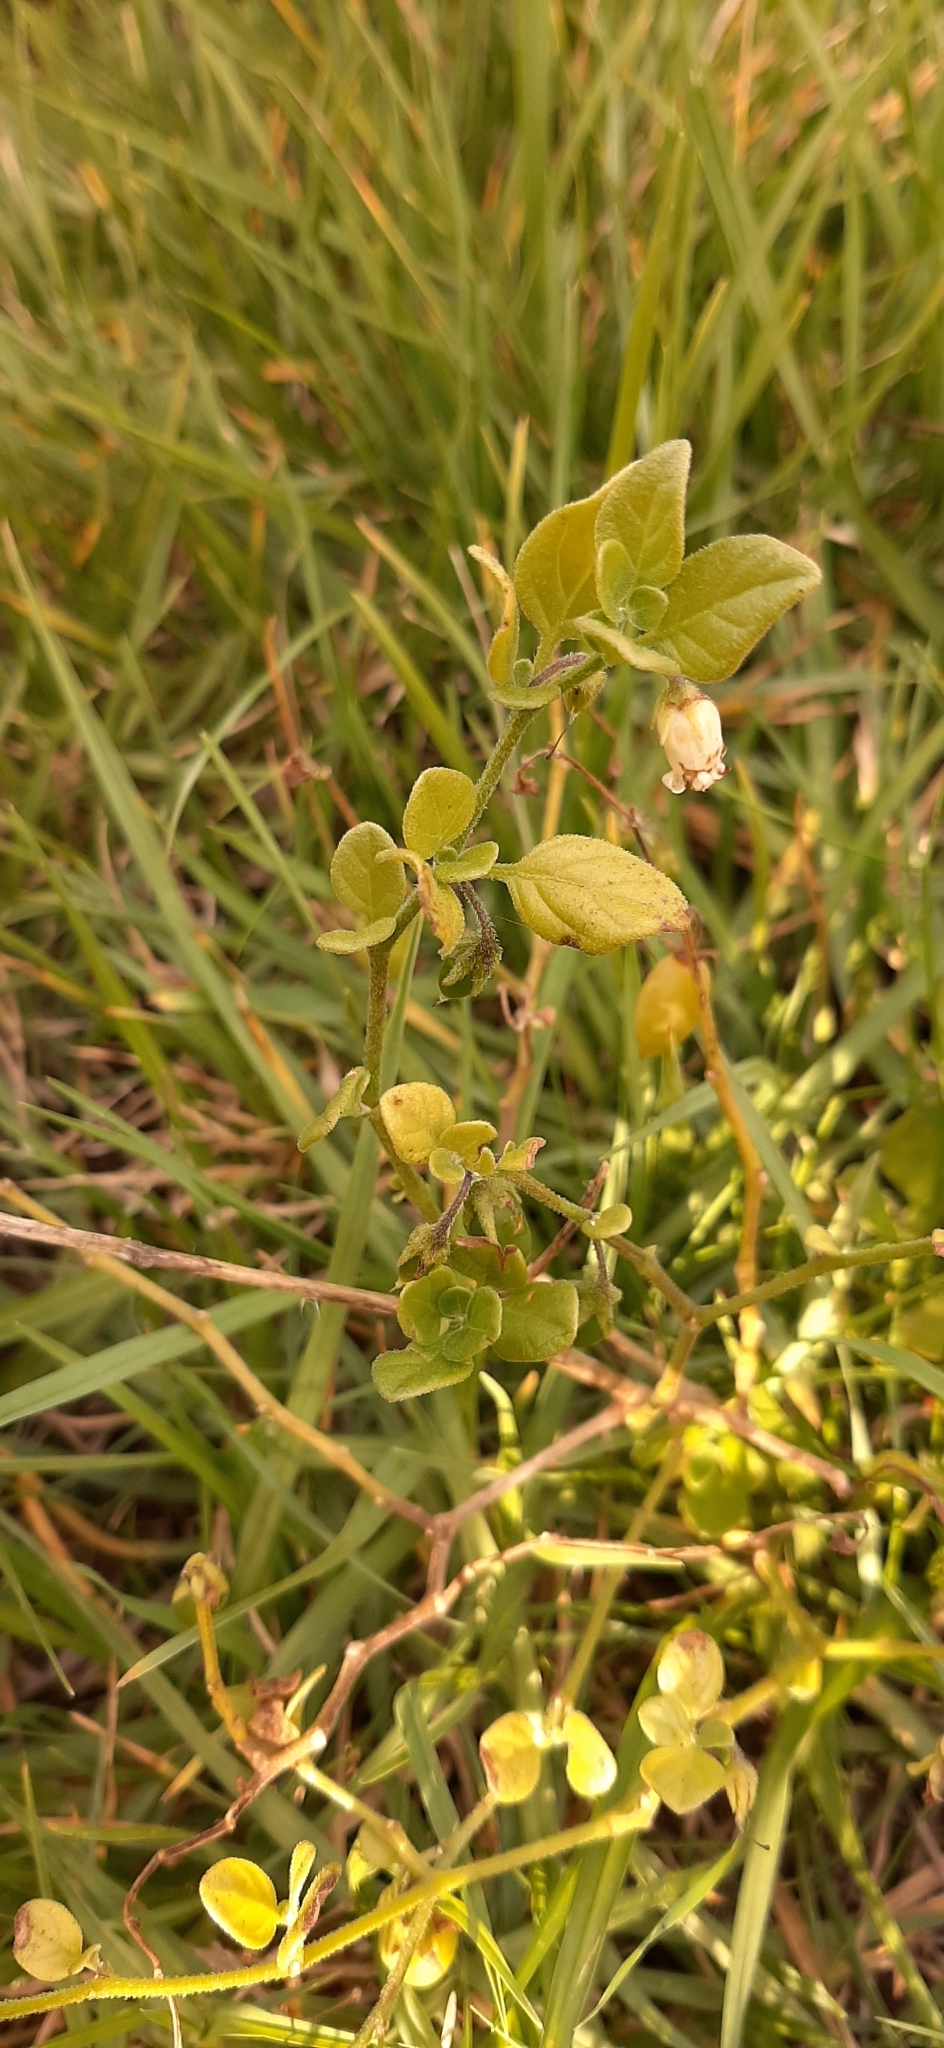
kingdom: Plantae
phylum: Tracheophyta
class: Magnoliopsida
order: Solanales
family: Solanaceae
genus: Salpichroa
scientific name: Salpichroa origanifolia
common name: Lily-of-the-valley-vine
